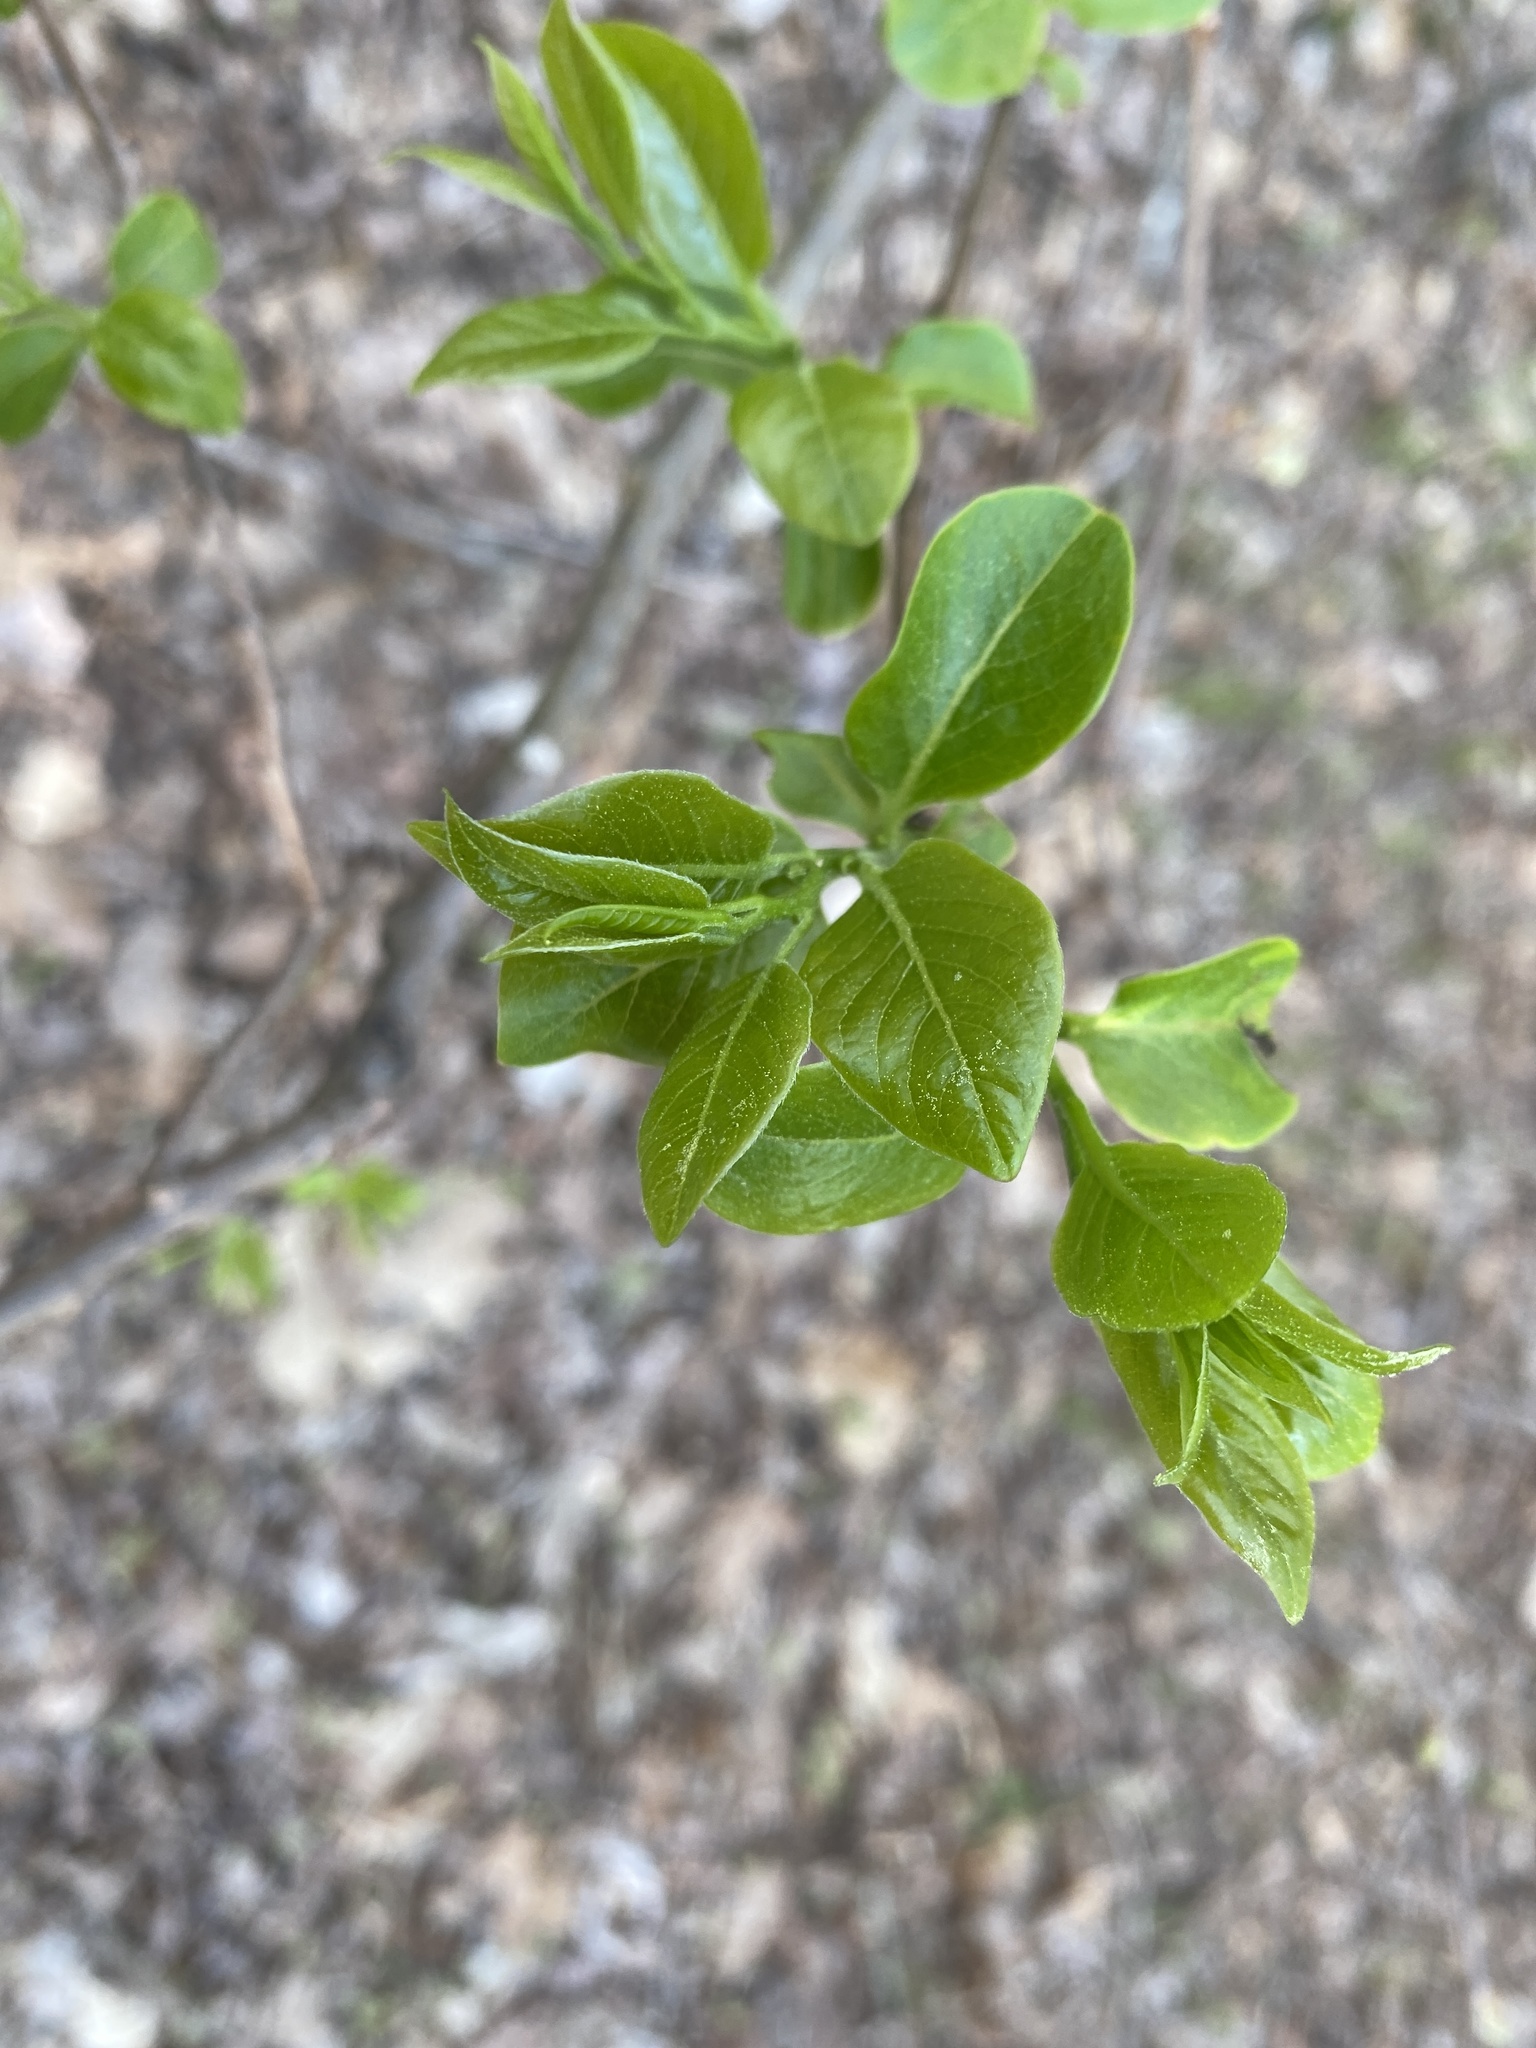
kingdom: Plantae
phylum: Tracheophyta
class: Magnoliopsida
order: Ericales
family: Ebenaceae
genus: Diospyros
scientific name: Diospyros virginiana
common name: Persimmon
